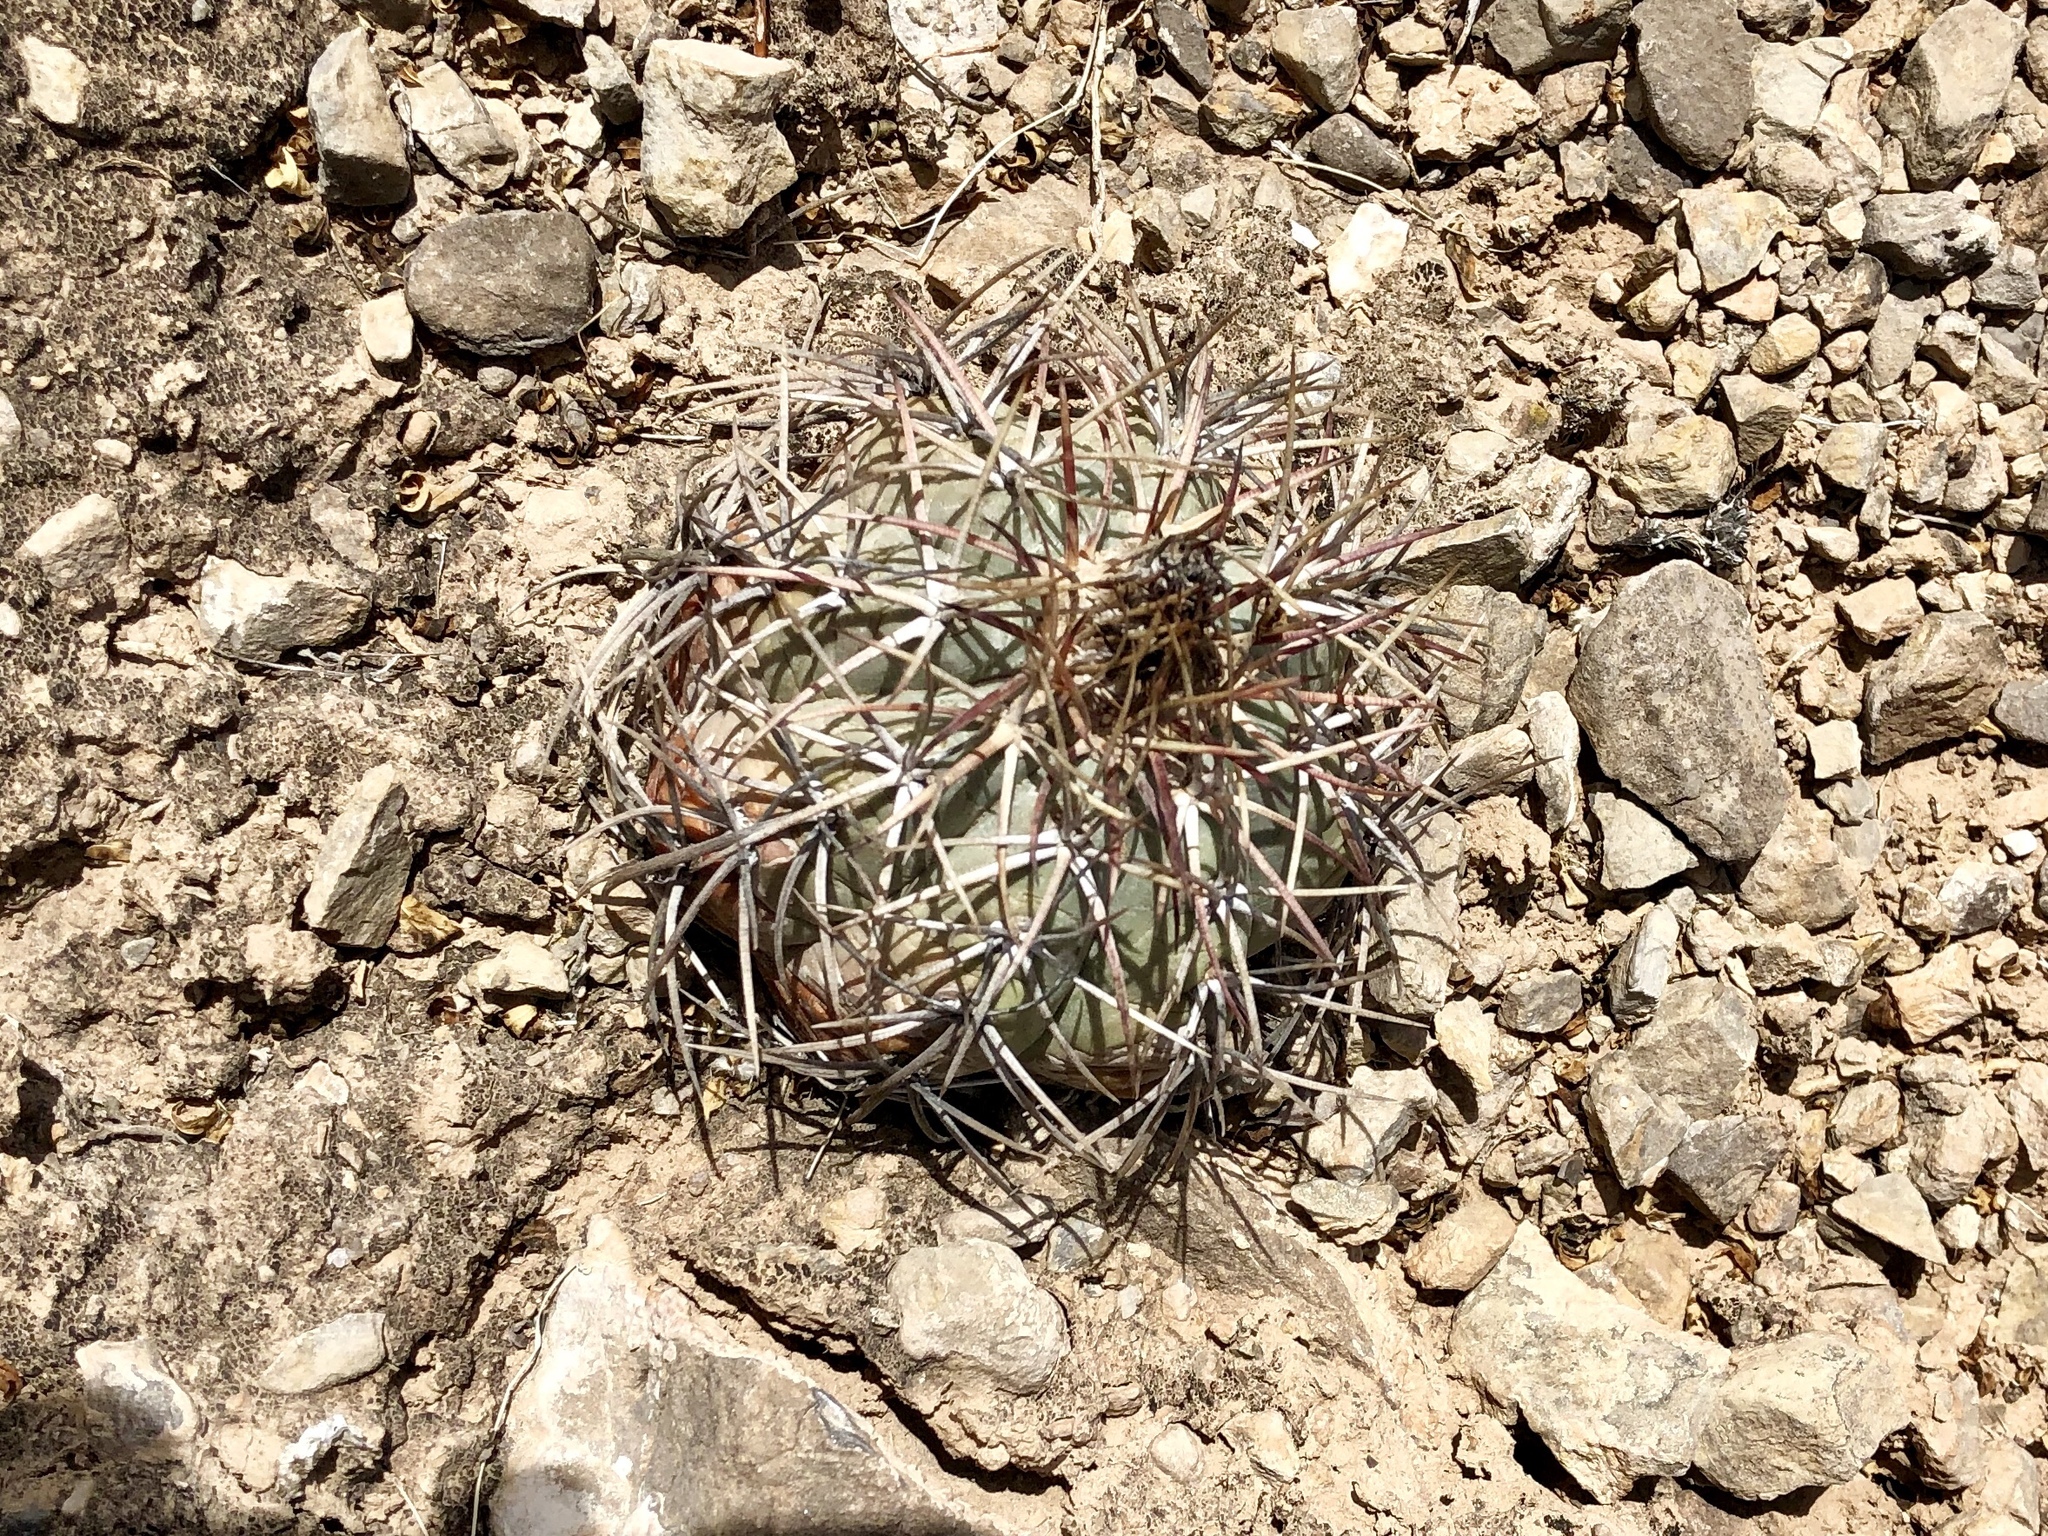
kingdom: Plantae
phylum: Tracheophyta
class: Magnoliopsida
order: Caryophyllales
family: Cactaceae
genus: Echinocactus
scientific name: Echinocactus horizonthalonius
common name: Devilshead
